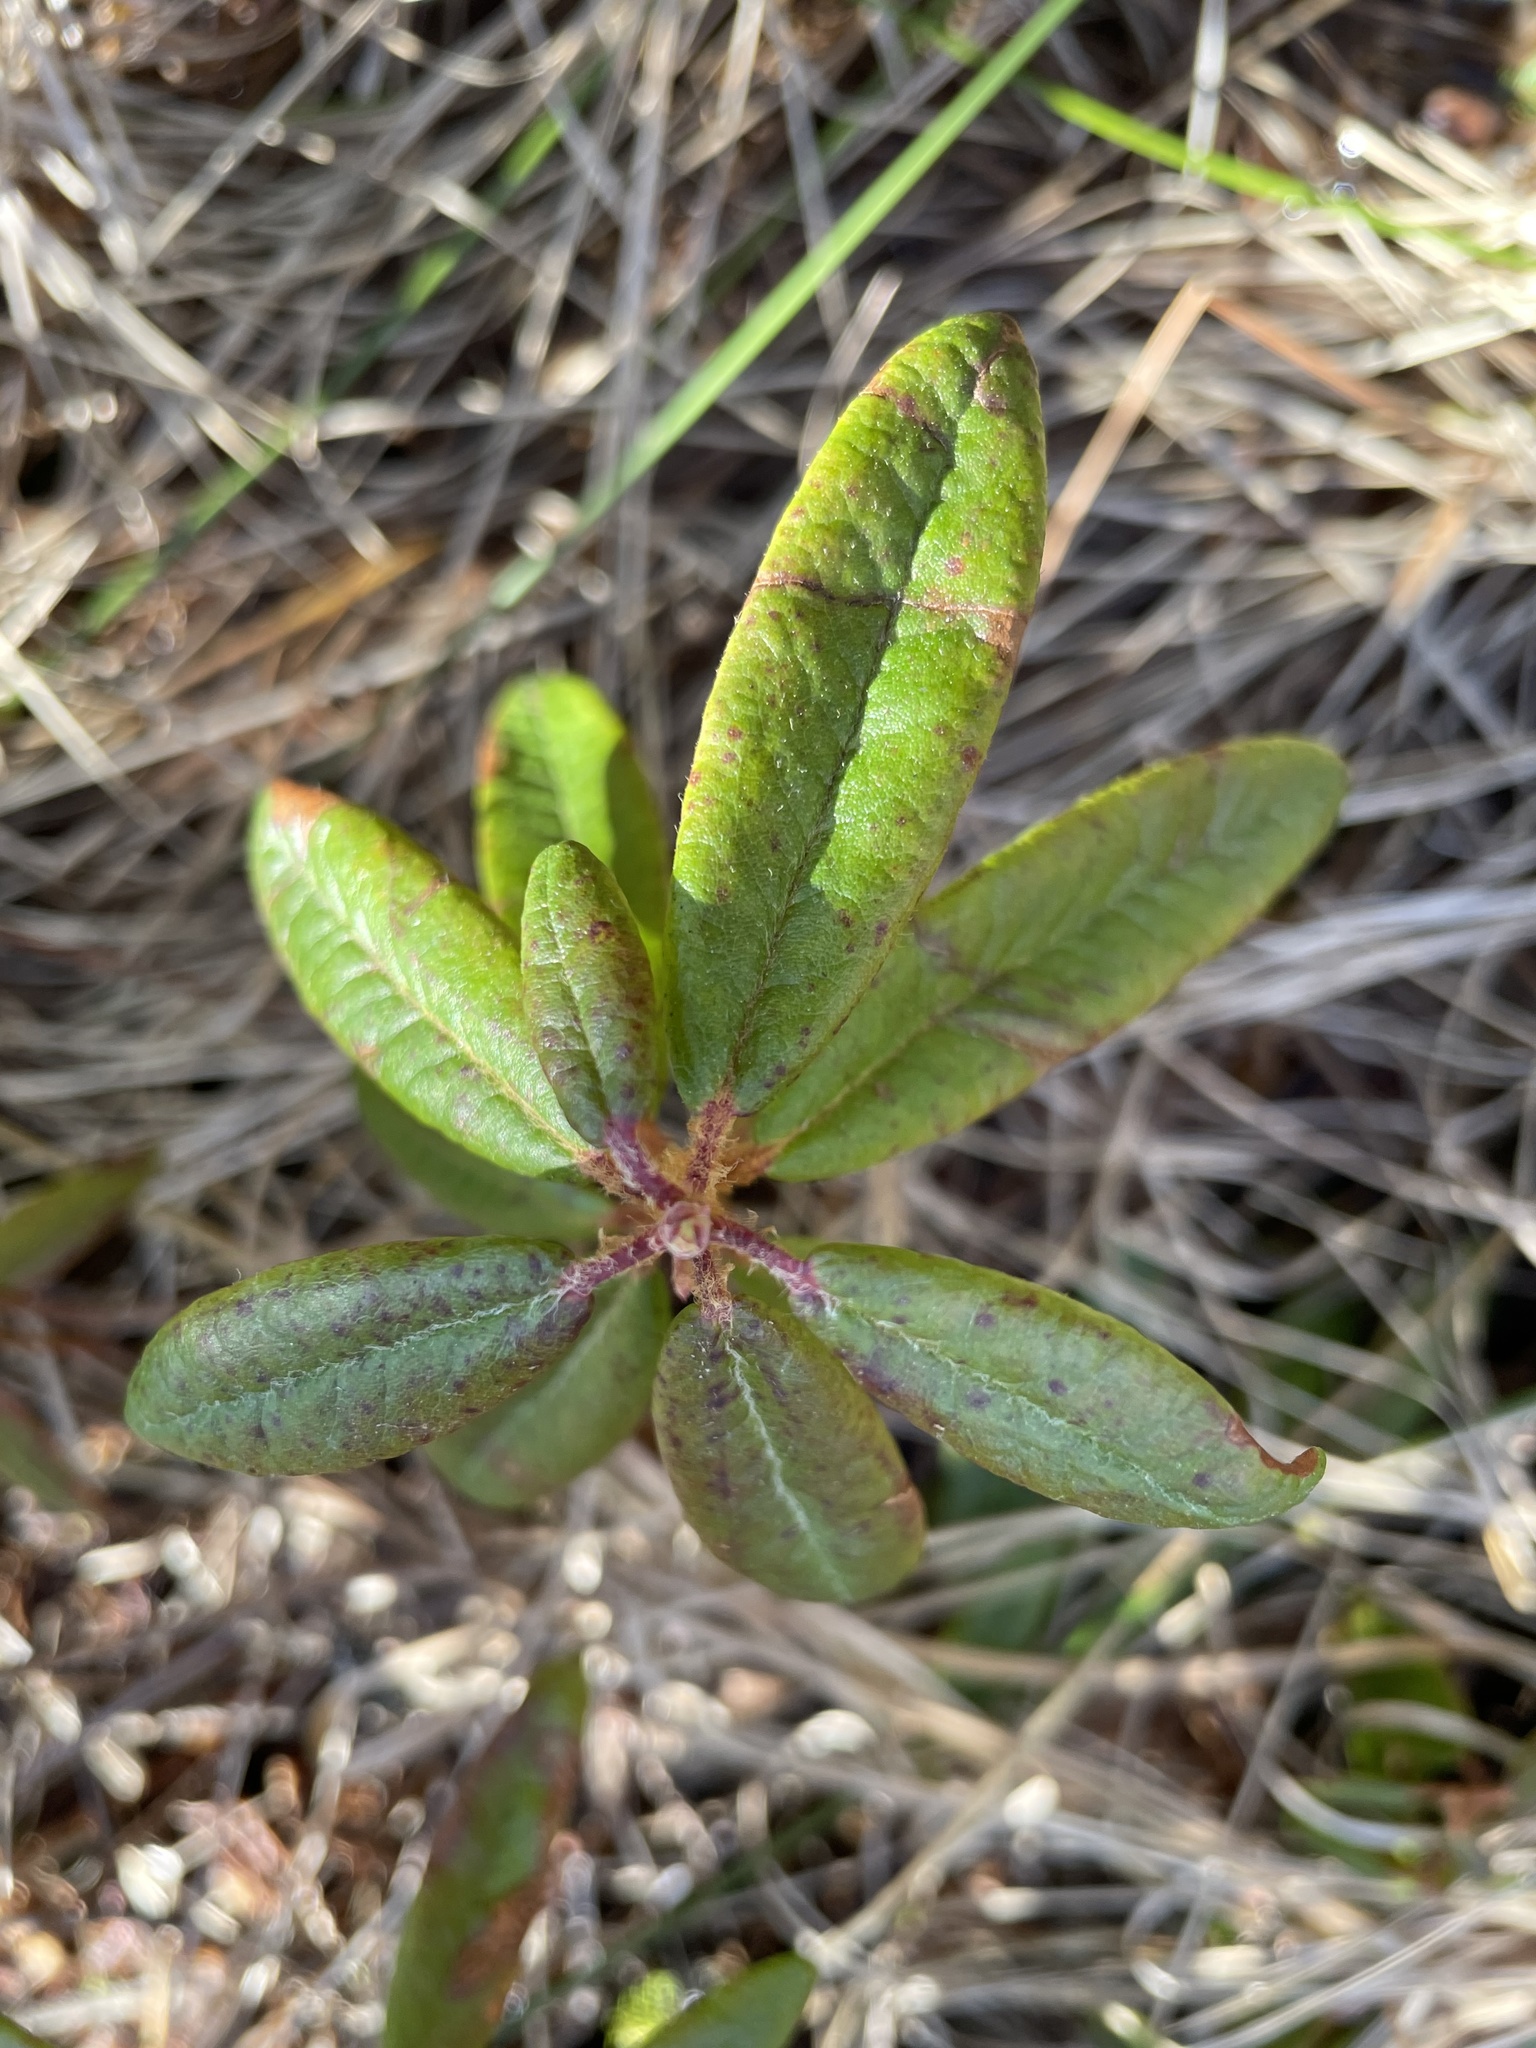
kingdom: Plantae
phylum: Tracheophyta
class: Magnoliopsida
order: Ericales
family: Ericaceae
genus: Rhododendron
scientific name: Rhododendron groenlandicum
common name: Bog labrador tea
